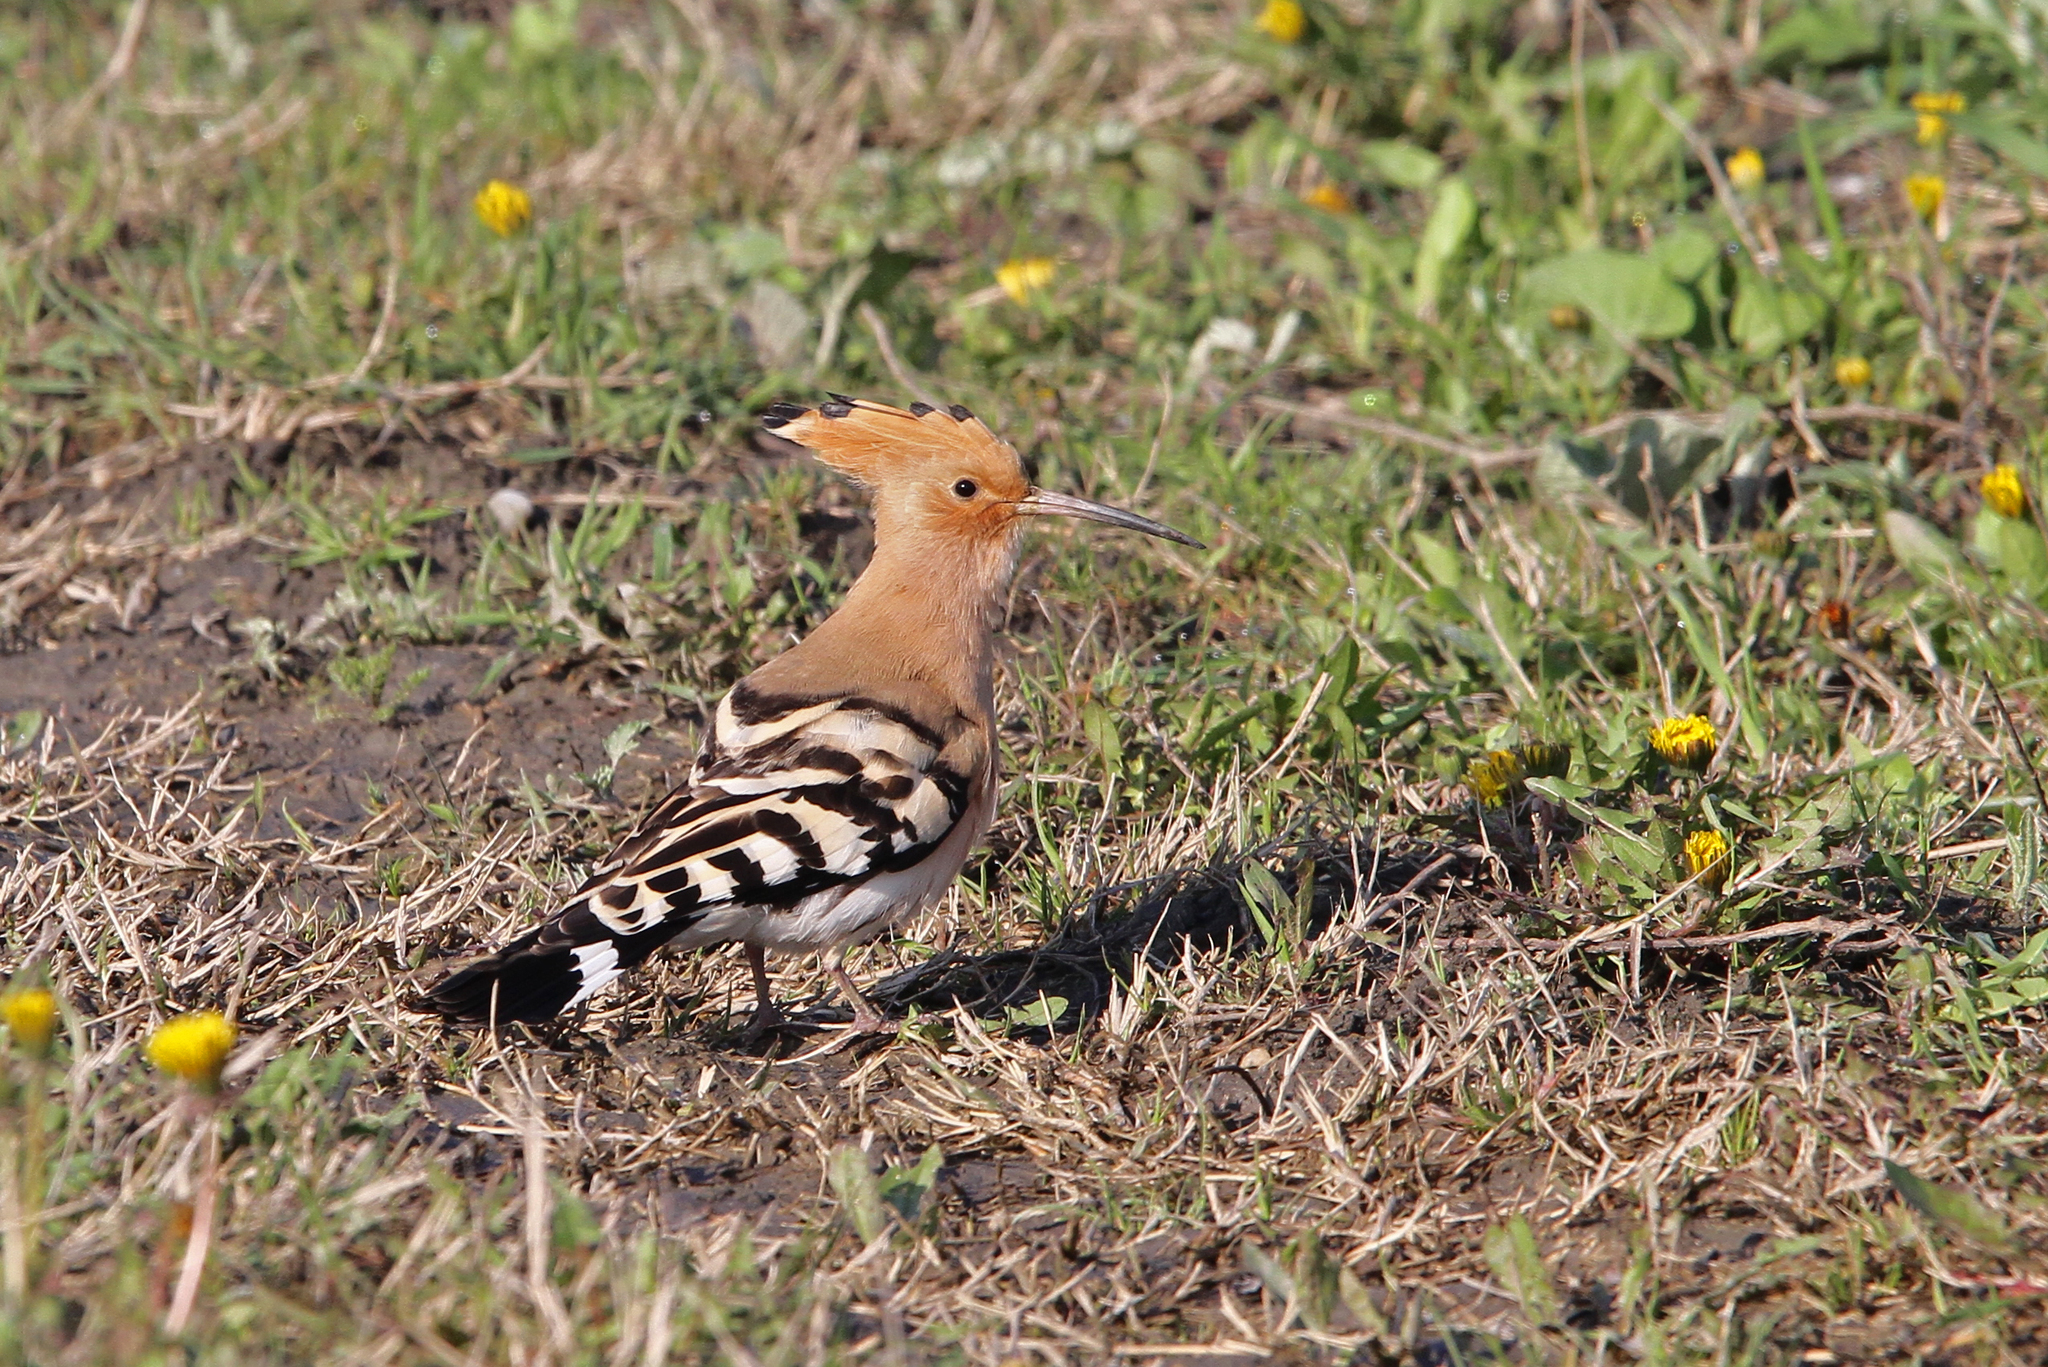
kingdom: Animalia
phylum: Chordata
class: Aves
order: Bucerotiformes
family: Upupidae
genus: Upupa
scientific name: Upupa epops
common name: Eurasian hoopoe
